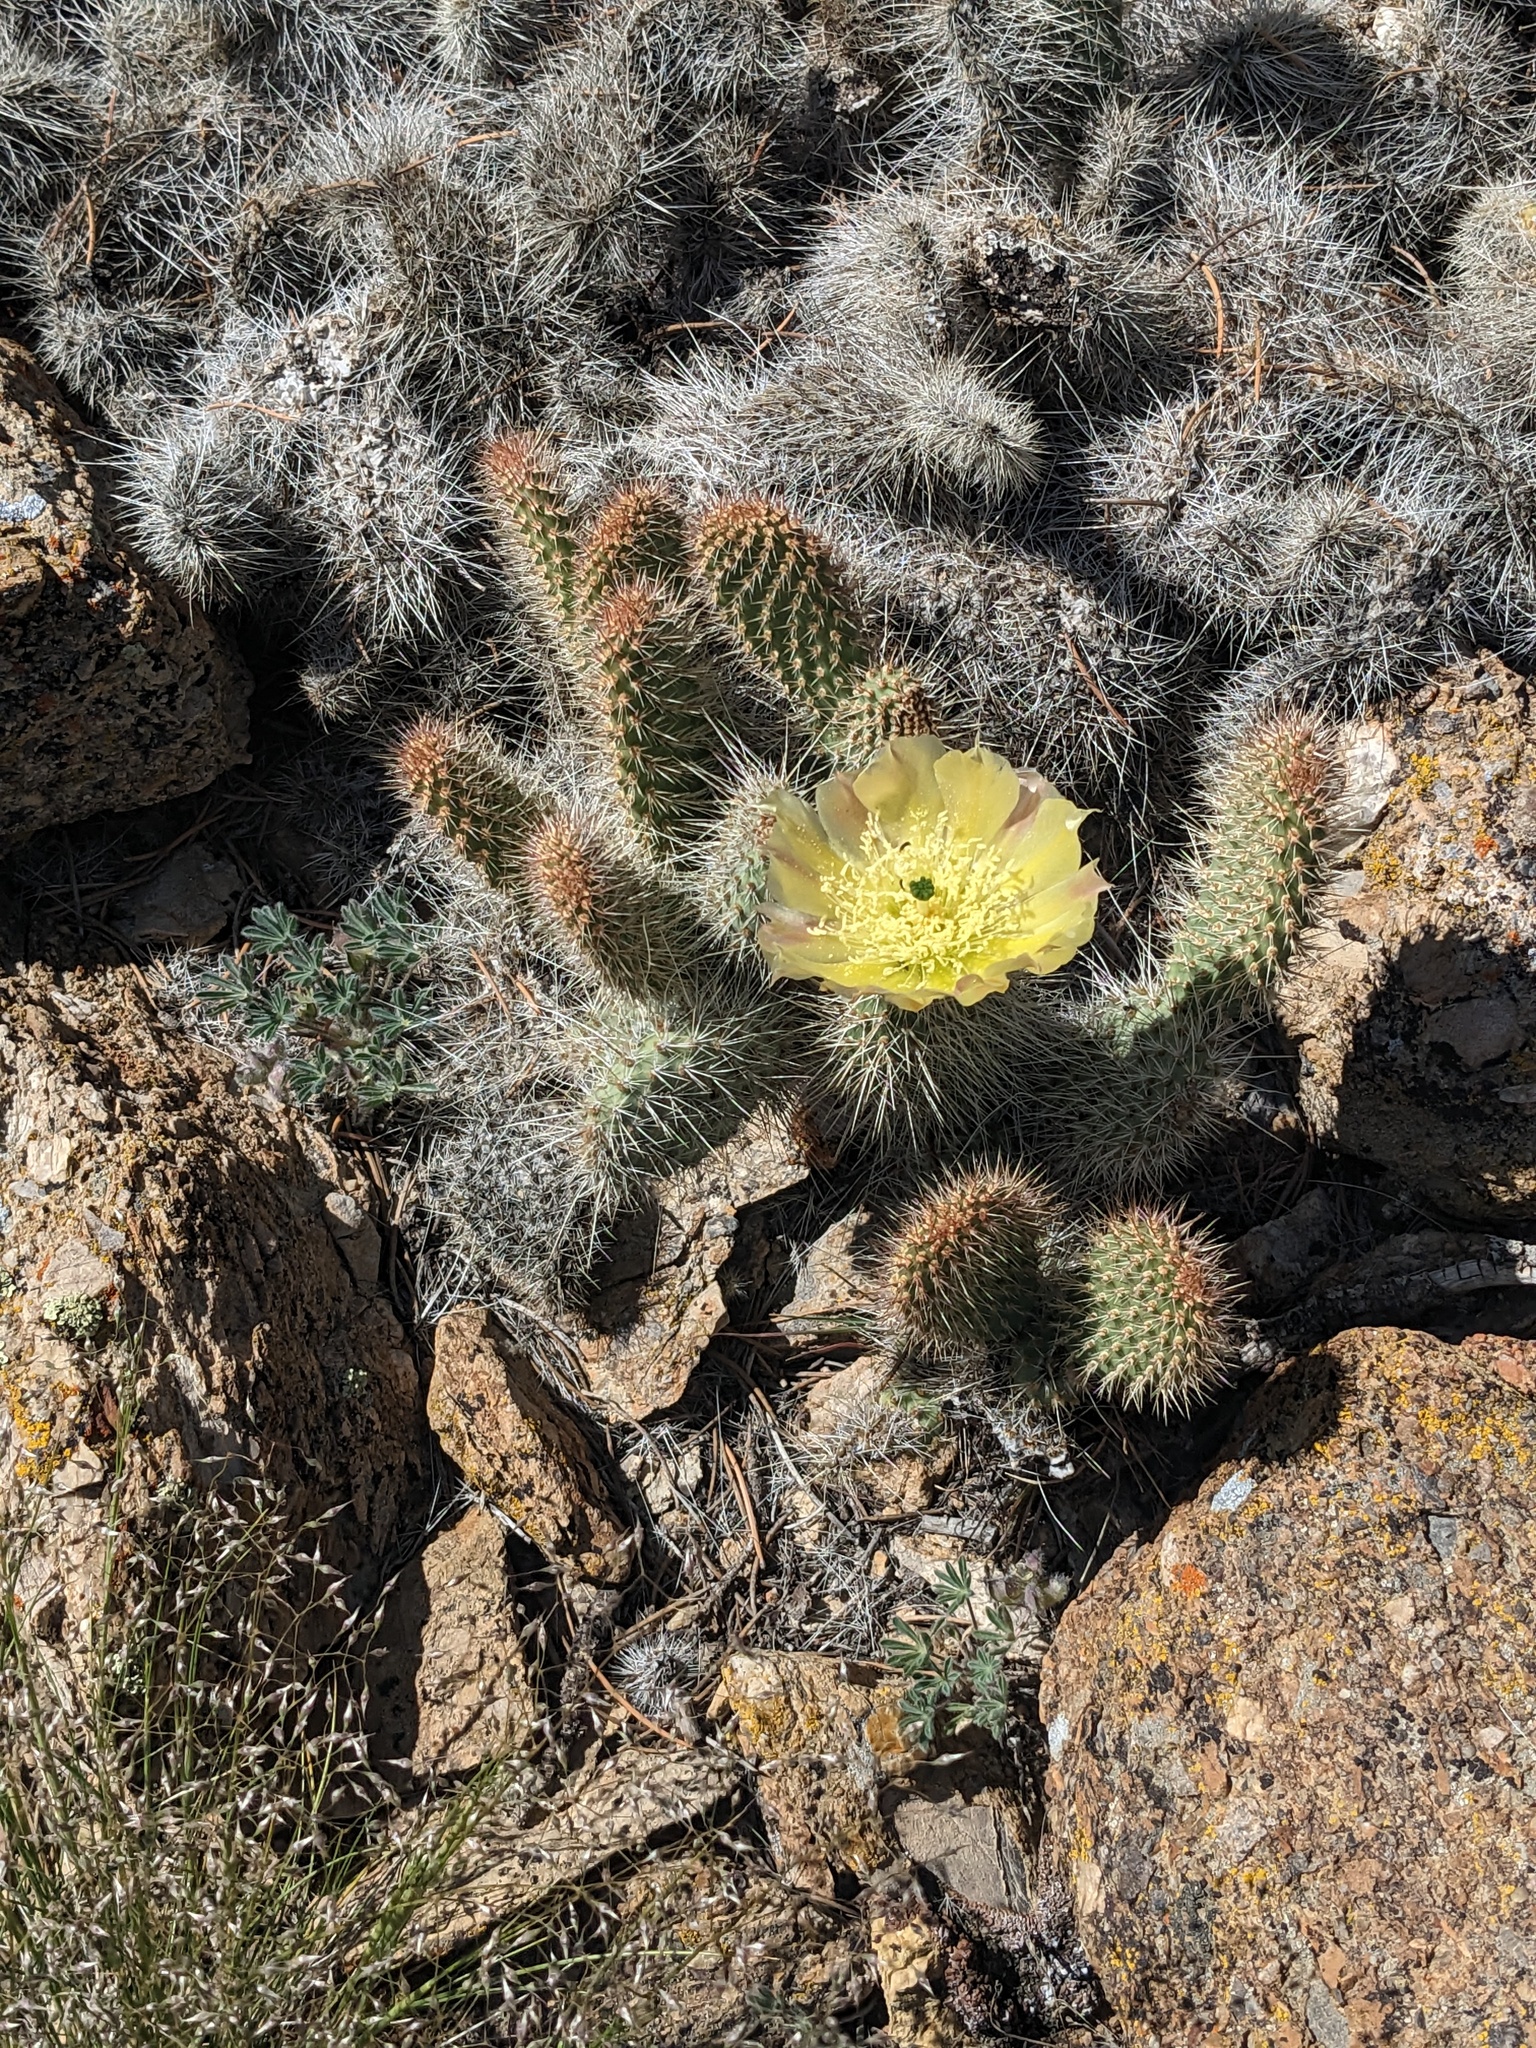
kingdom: Plantae
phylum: Tracheophyta
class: Magnoliopsida
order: Caryophyllales
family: Cactaceae
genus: Opuntia
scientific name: Opuntia polyacantha
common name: Plains prickly-pear
